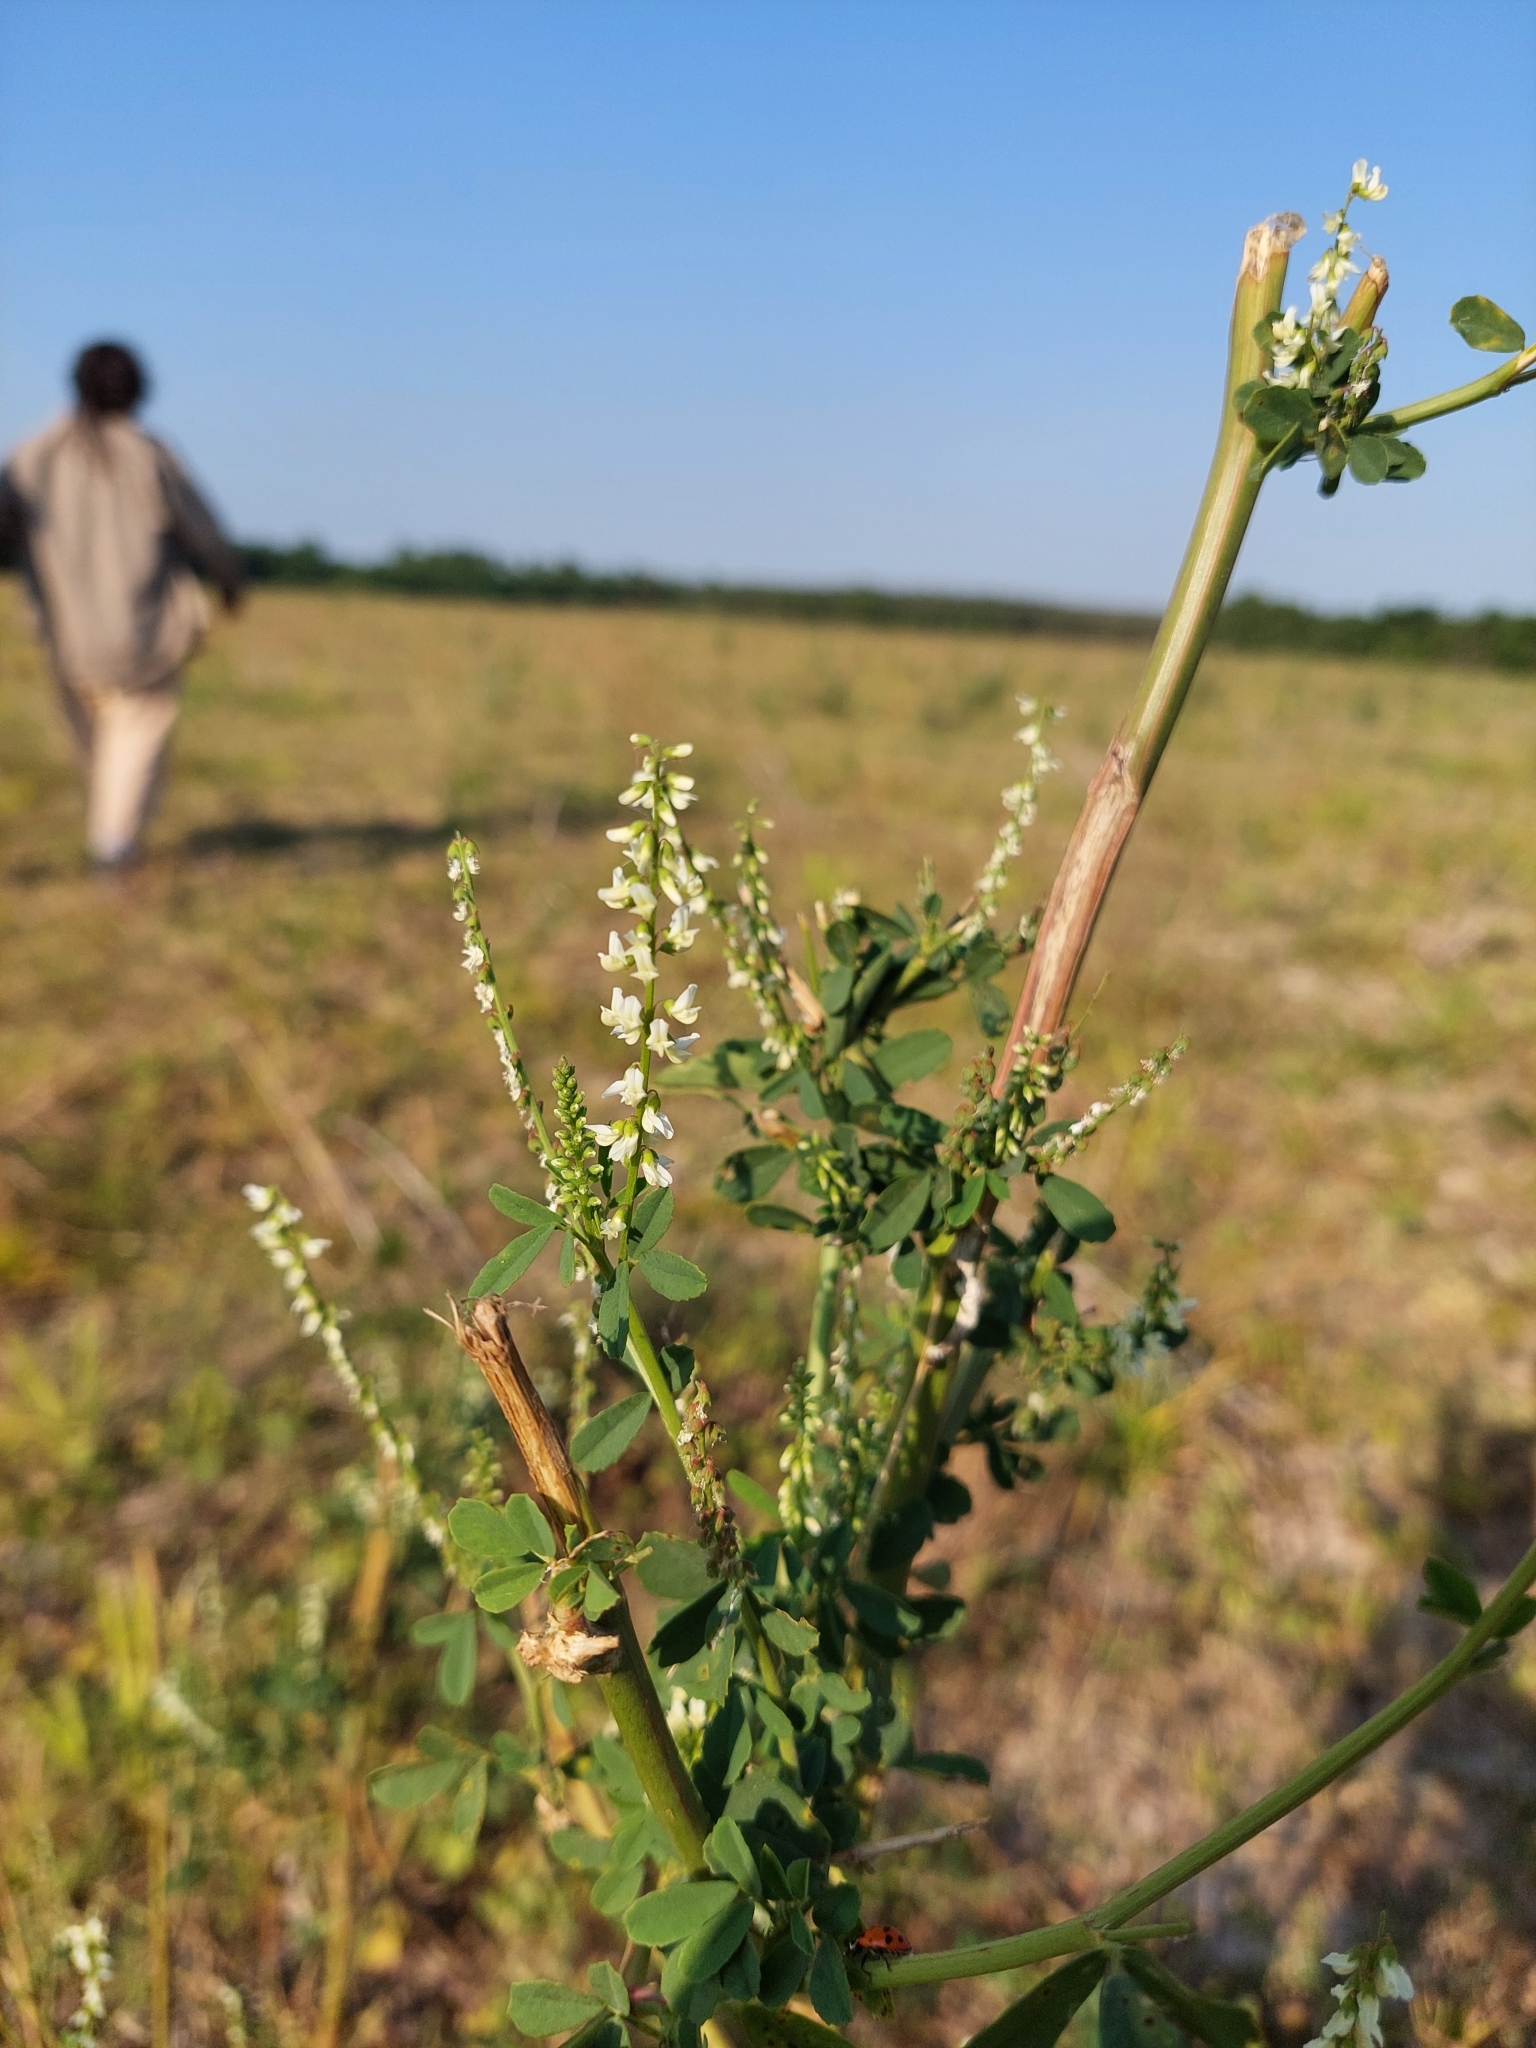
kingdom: Plantae
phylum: Tracheophyta
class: Magnoliopsida
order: Fabales
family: Fabaceae
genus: Melilotus
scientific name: Melilotus albus
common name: White melilot
